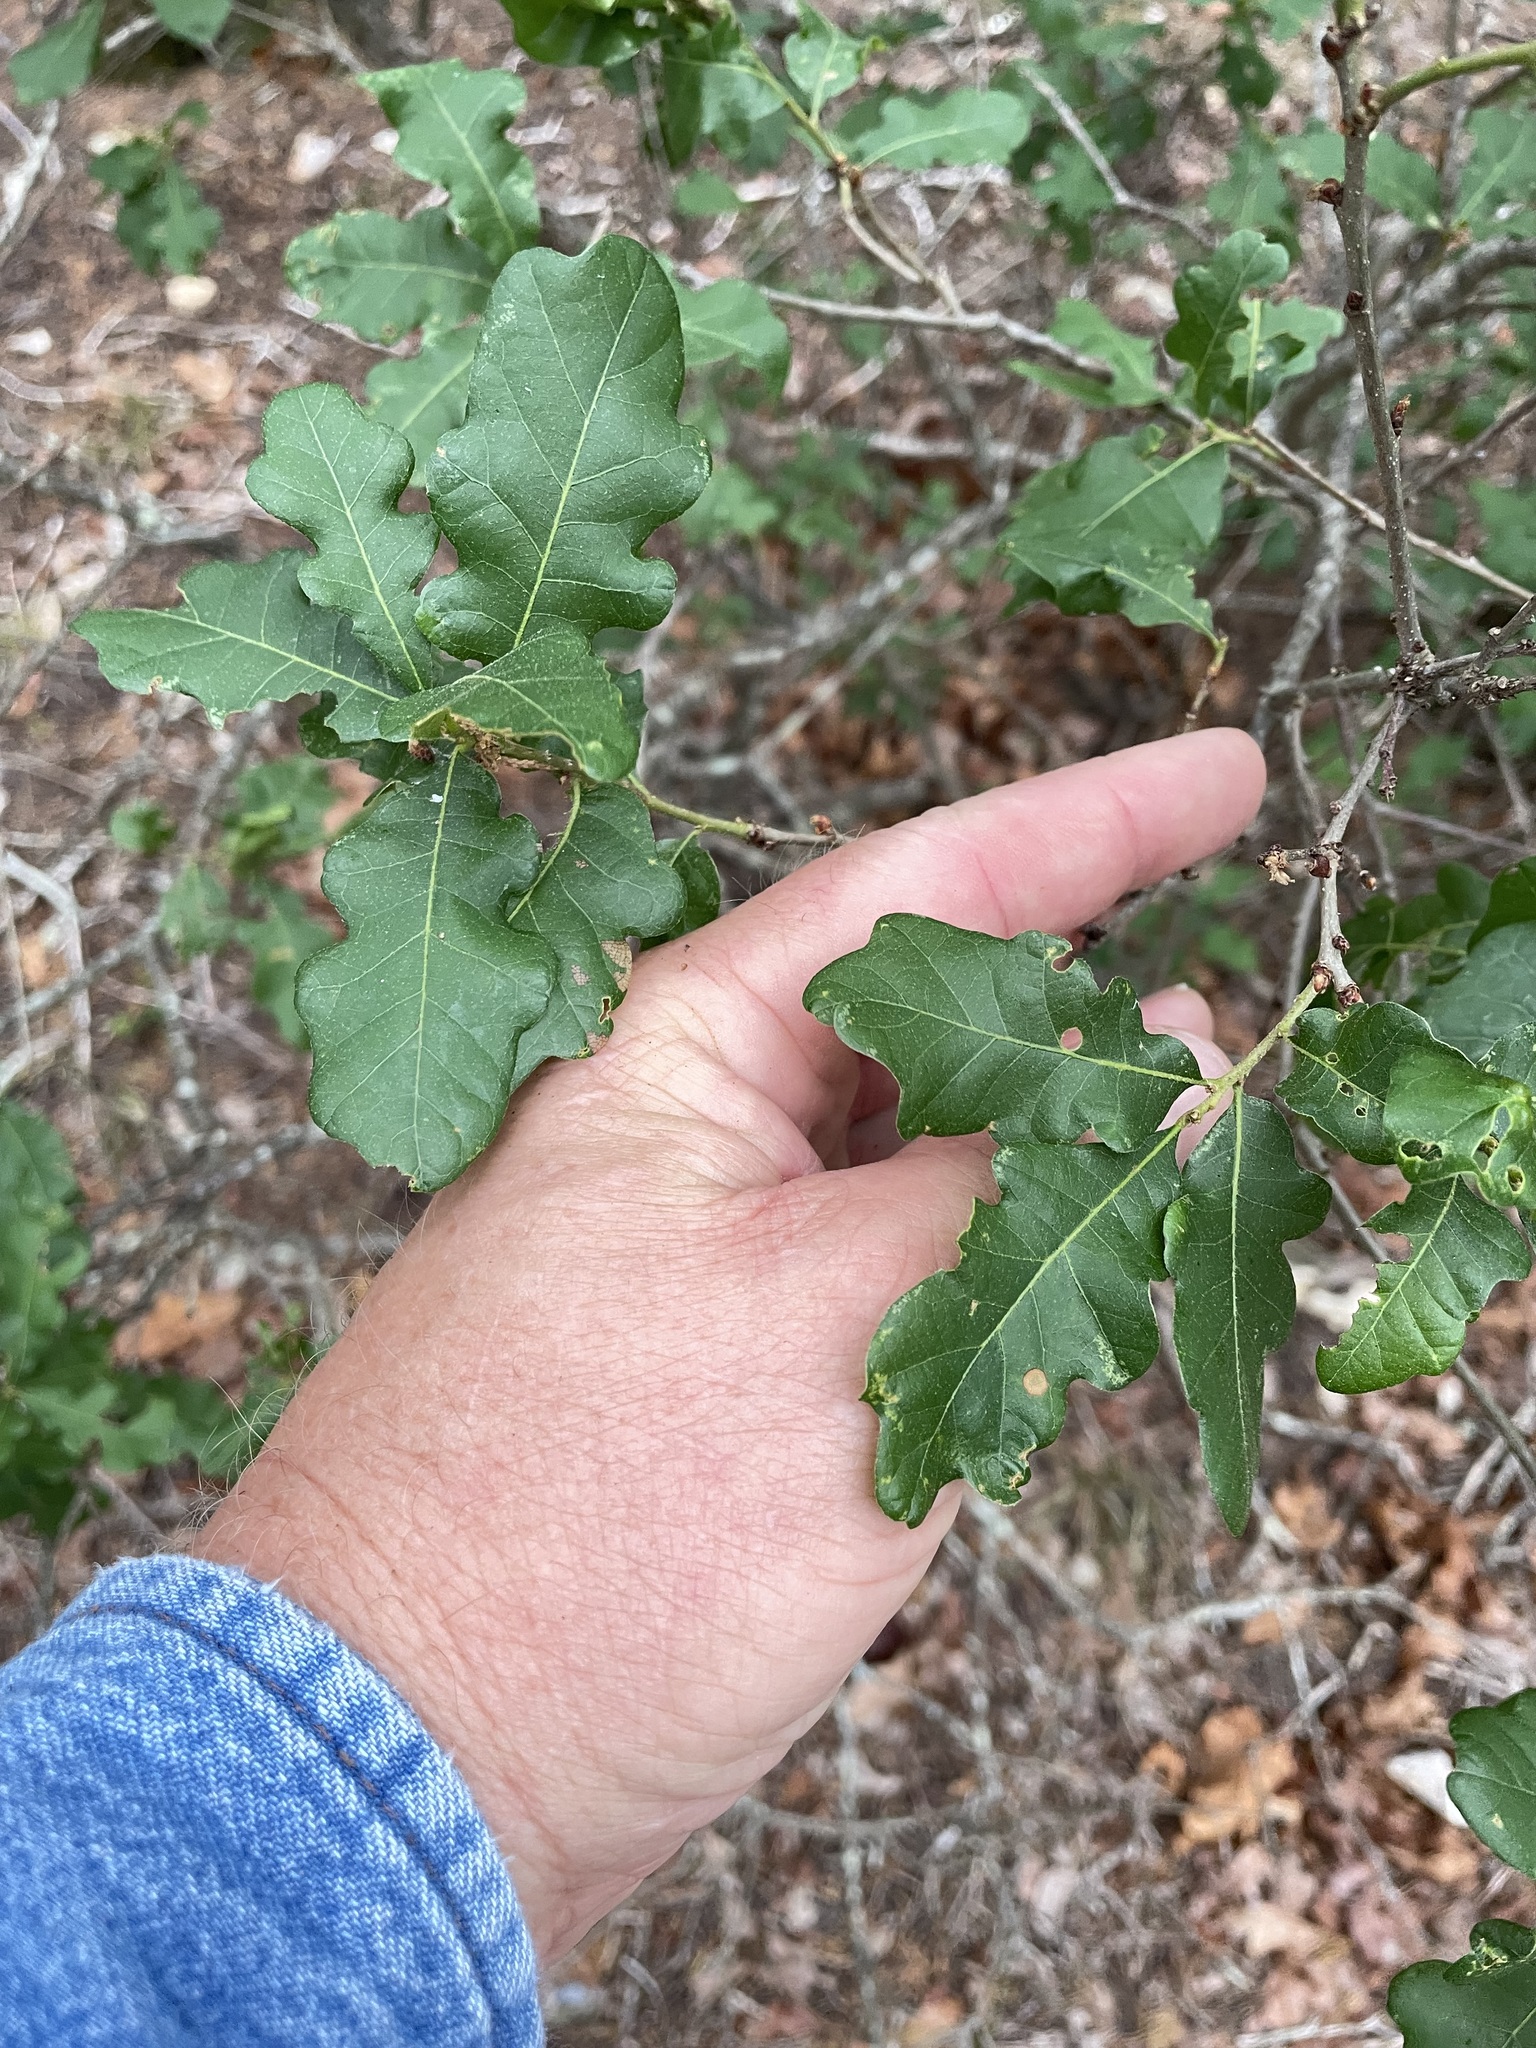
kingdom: Plantae
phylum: Tracheophyta
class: Magnoliopsida
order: Fagales
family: Fagaceae
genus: Quercus
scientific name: Quercus sinuata
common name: Durand oak
